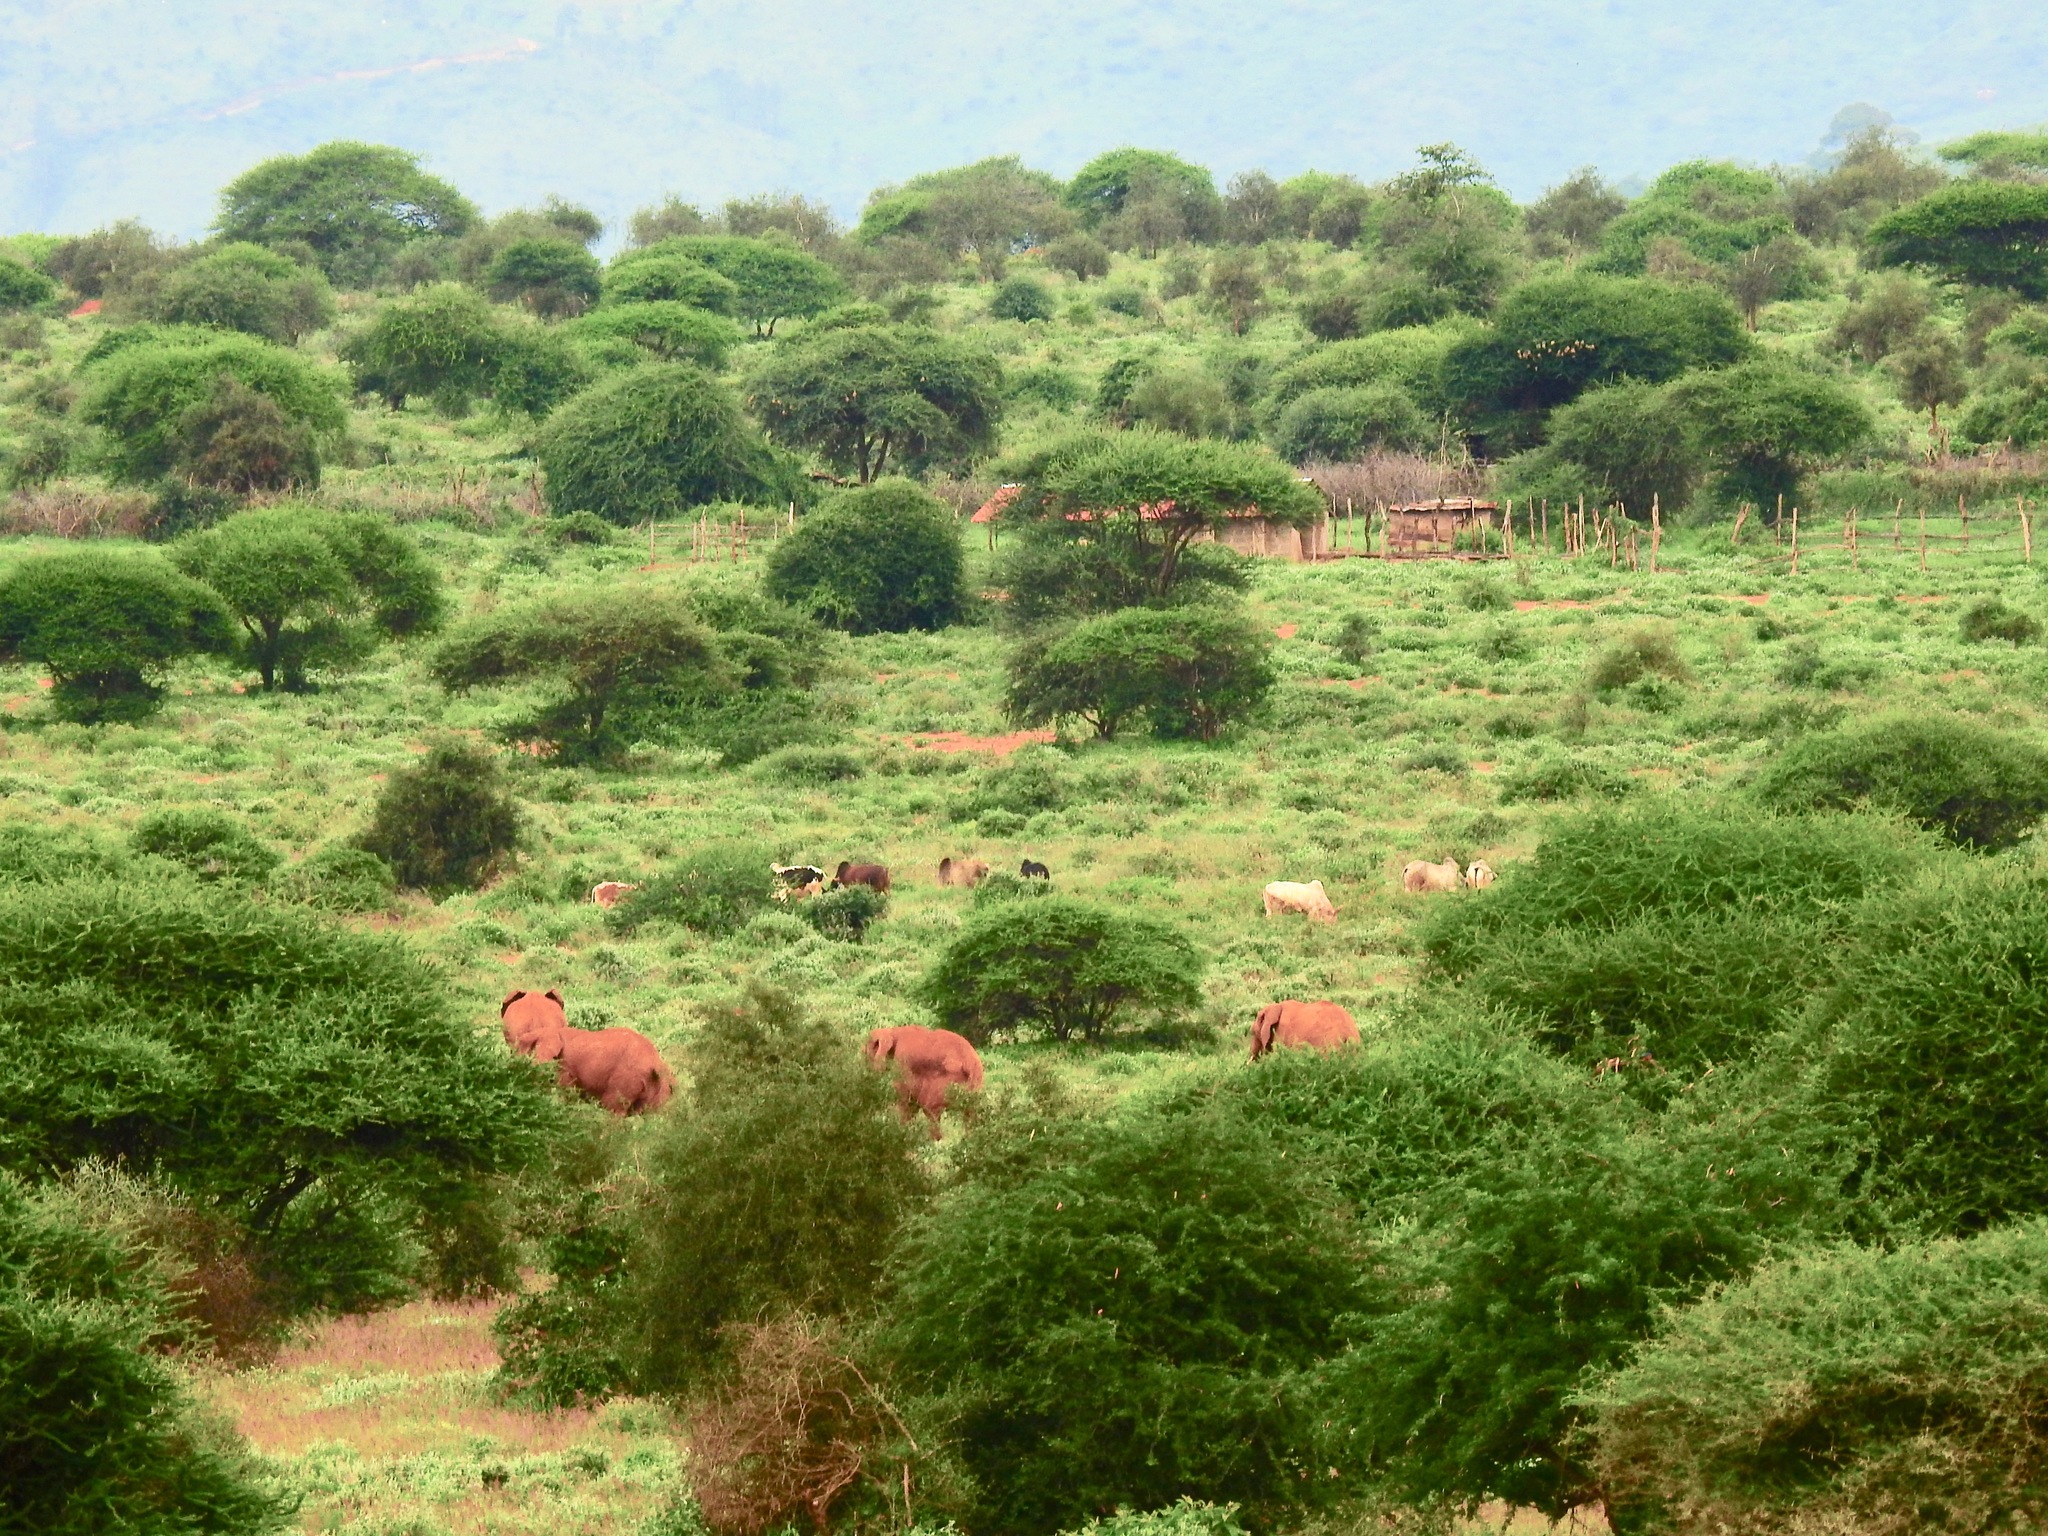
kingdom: Animalia
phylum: Chordata
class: Mammalia
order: Proboscidea
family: Elephantidae
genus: Loxodonta
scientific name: Loxodonta africana
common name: African elephant
